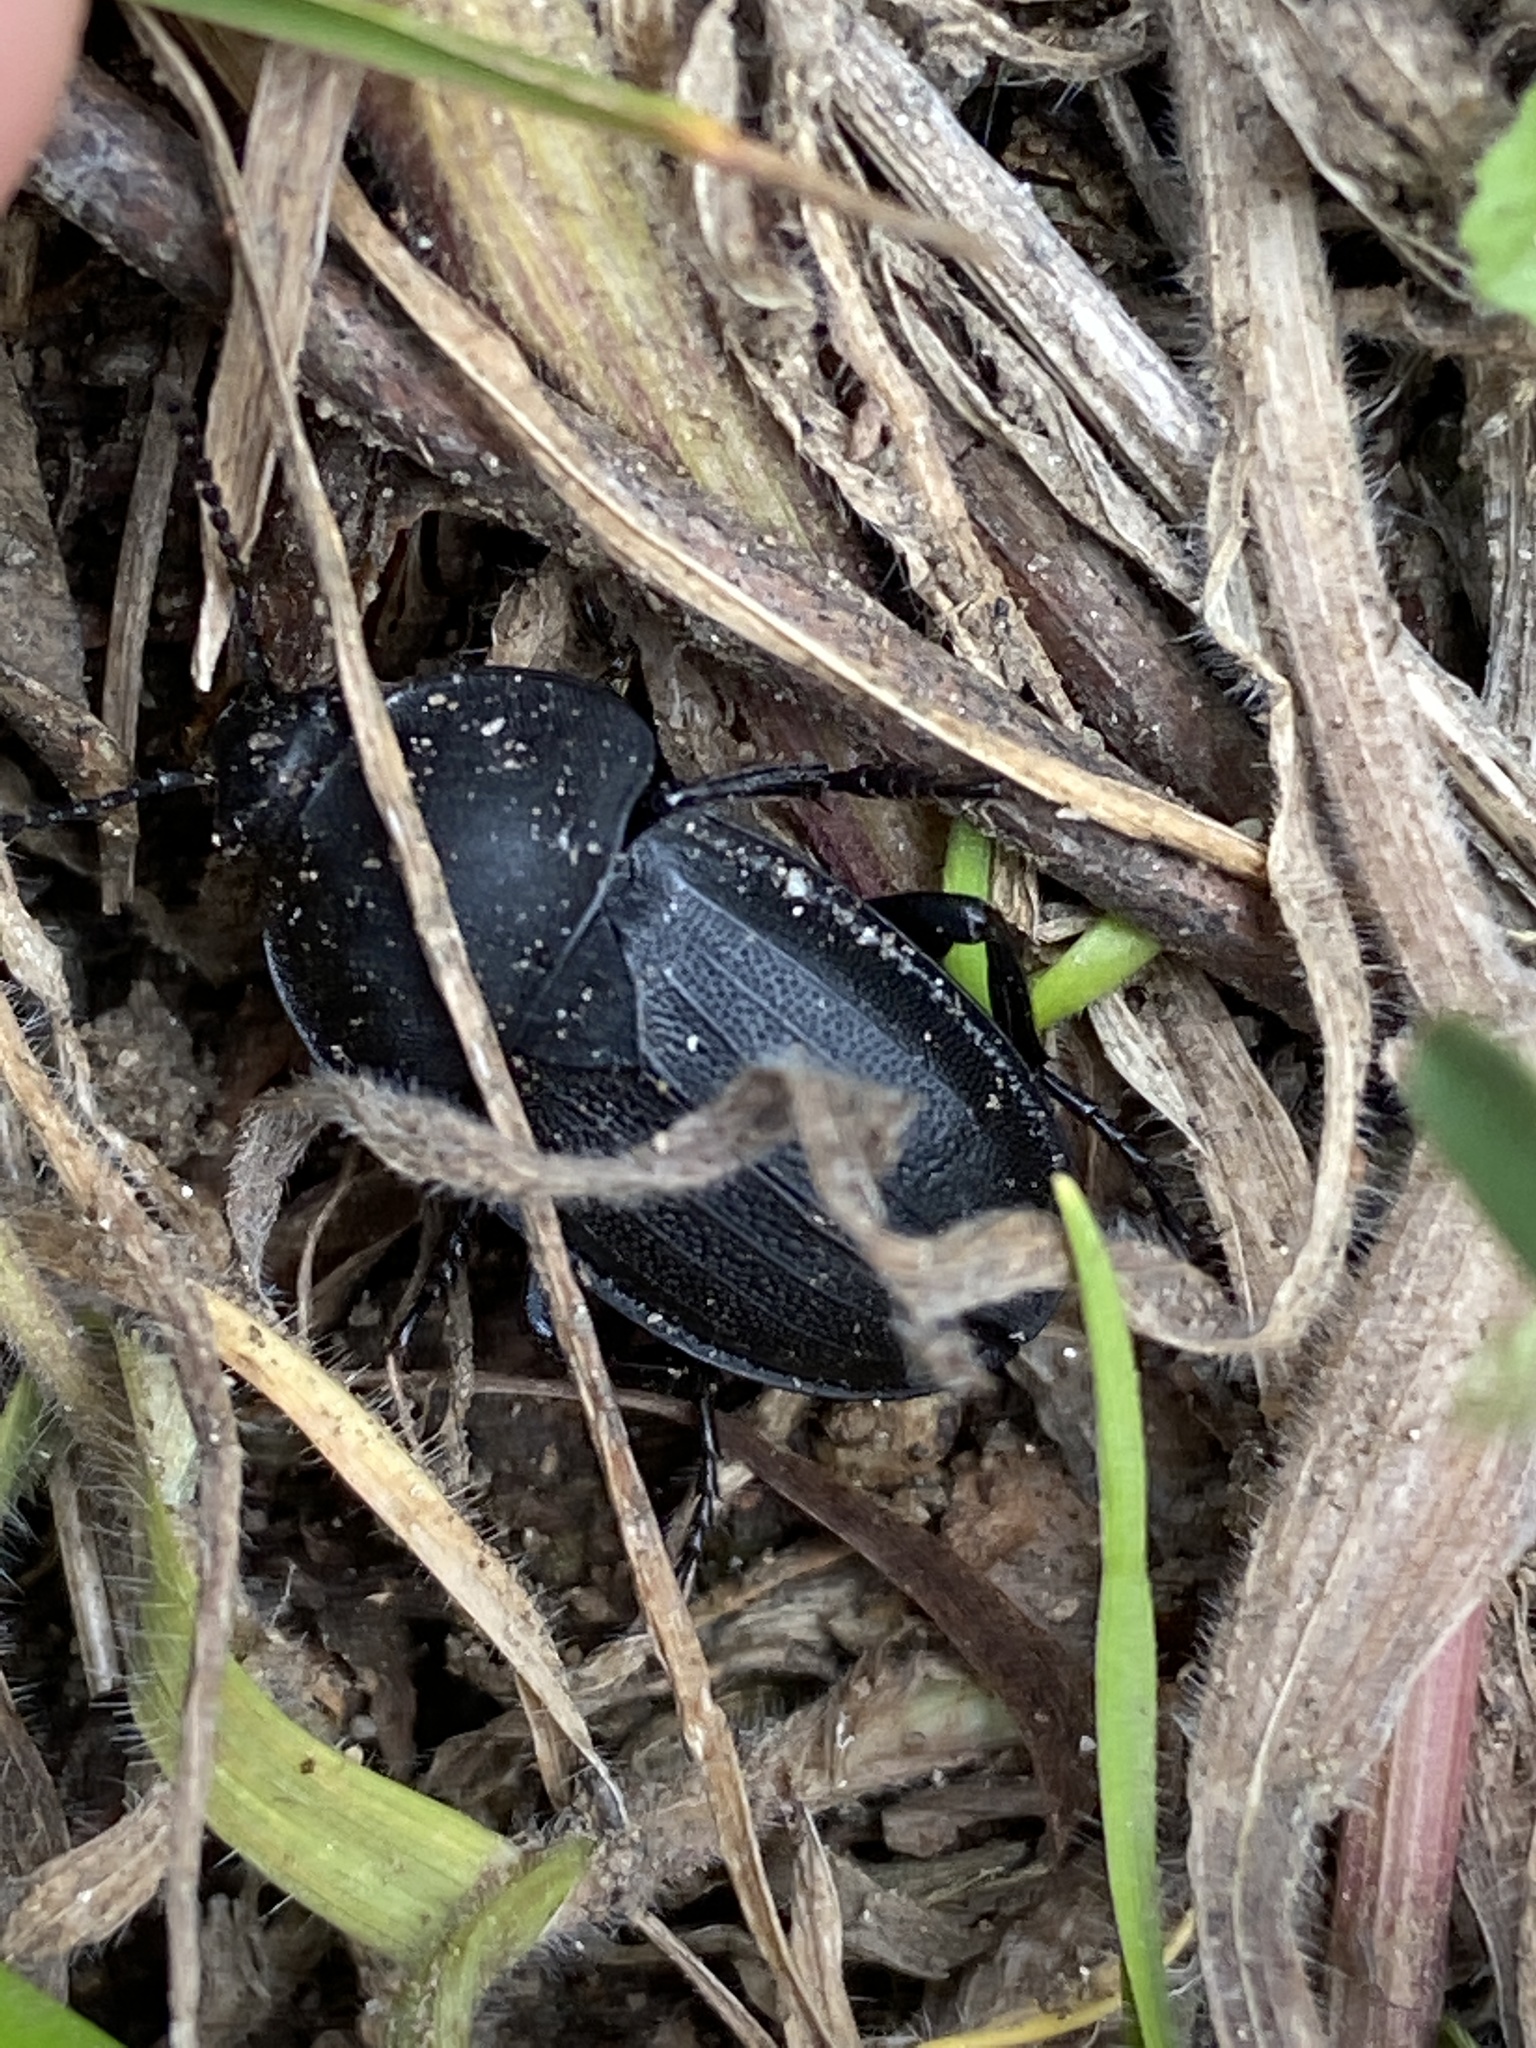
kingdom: Animalia
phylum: Arthropoda
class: Insecta
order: Coleoptera
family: Staphylinidae
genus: Silpha
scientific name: Silpha obscura
